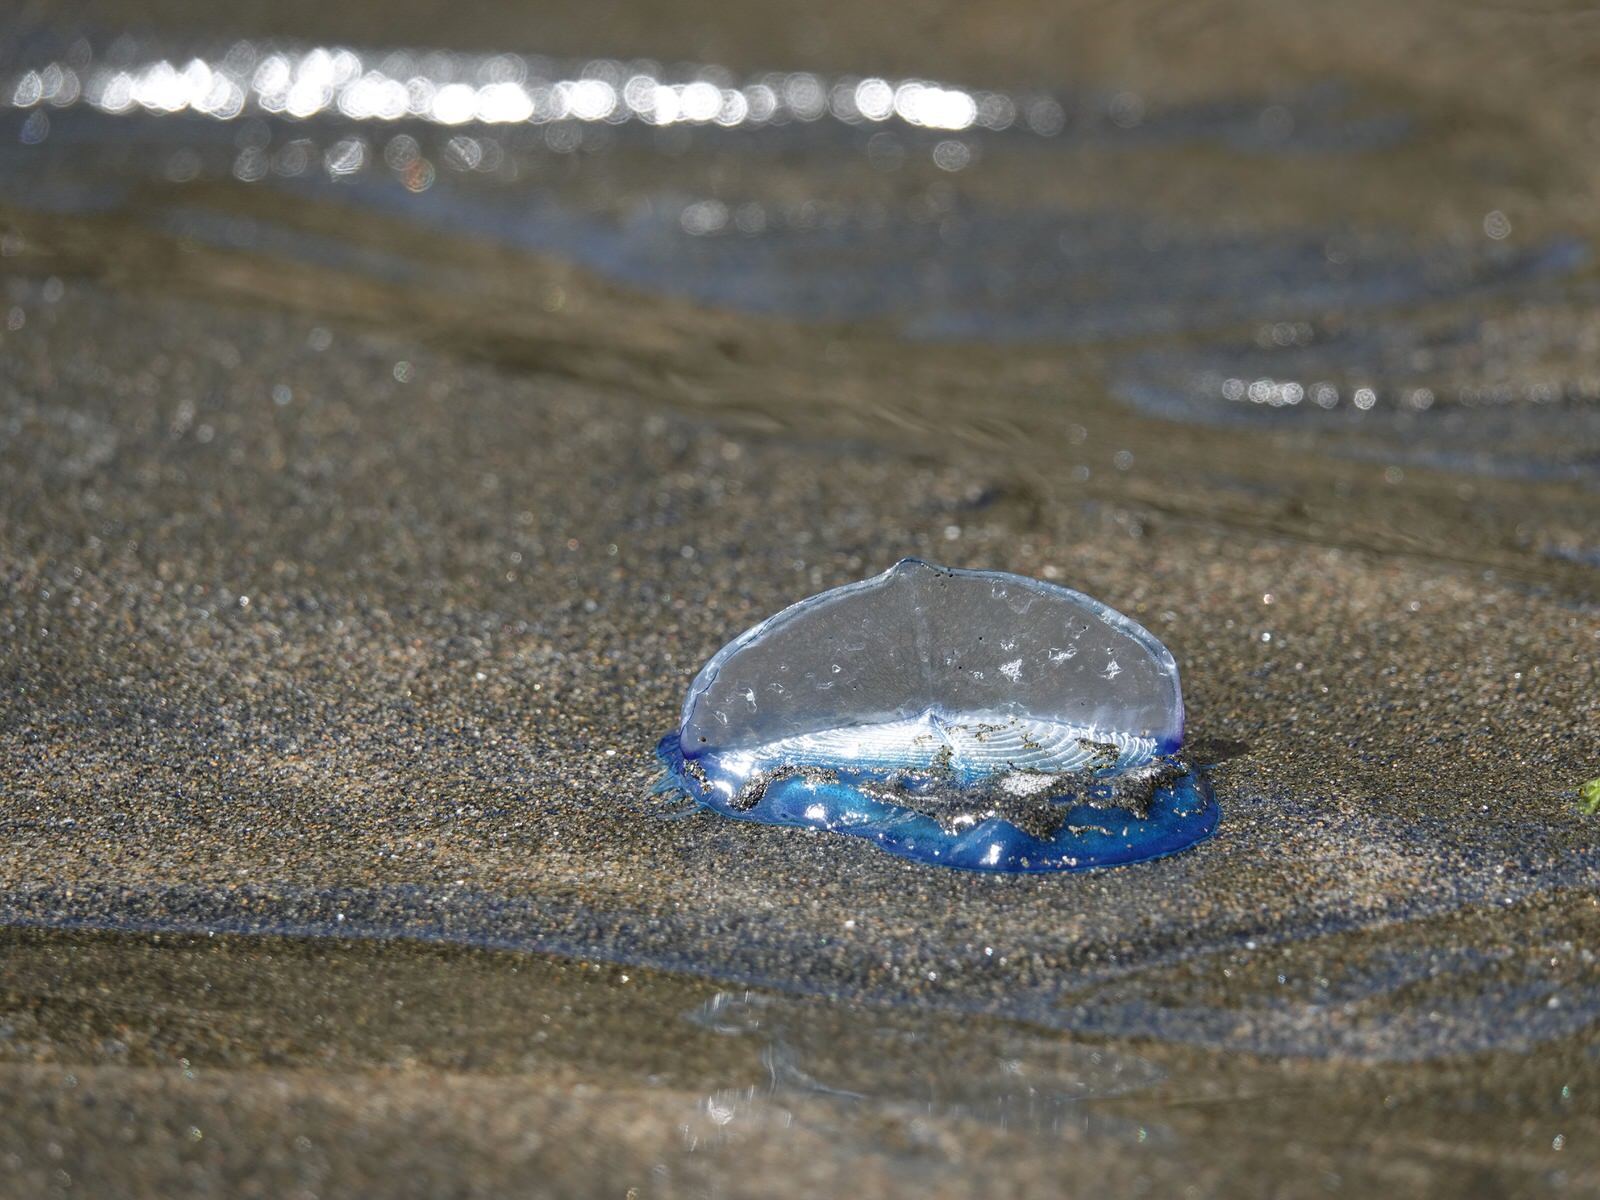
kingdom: Animalia
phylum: Cnidaria
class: Hydrozoa
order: Anthoathecata
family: Porpitidae
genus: Velella
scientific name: Velella velella
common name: By-the-wind-sailor
